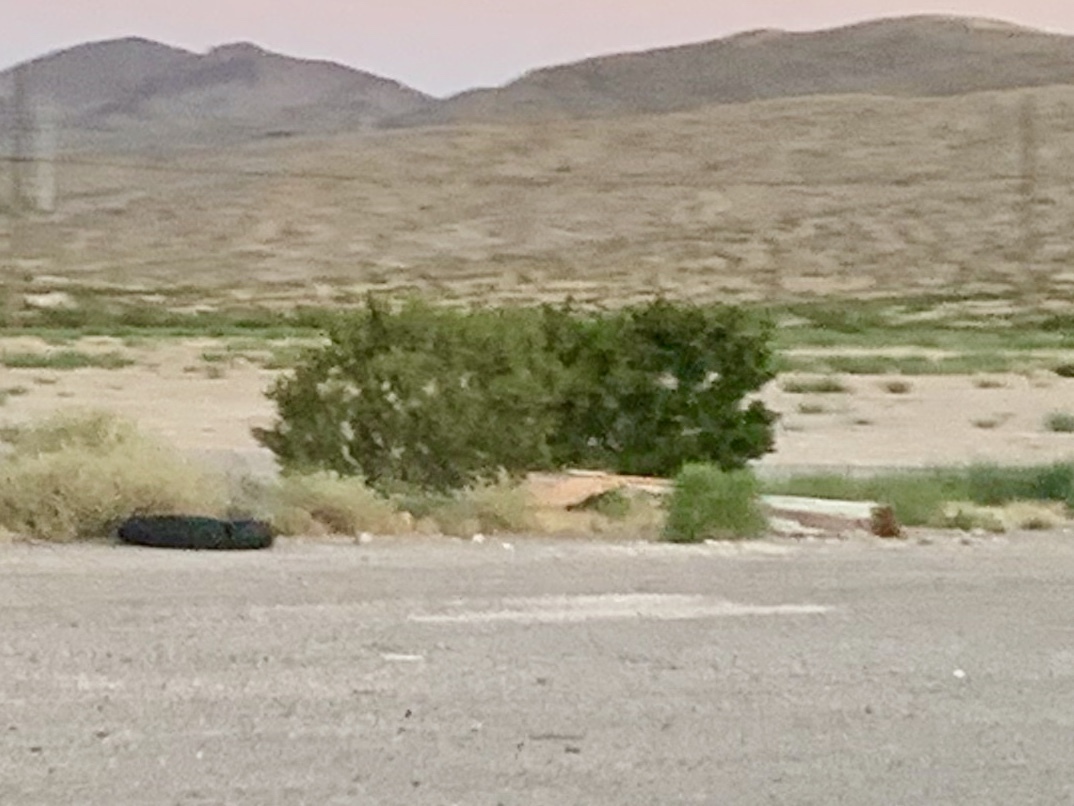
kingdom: Plantae
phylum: Tracheophyta
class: Magnoliopsida
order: Zygophyllales
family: Zygophyllaceae
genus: Larrea
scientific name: Larrea tridentata
